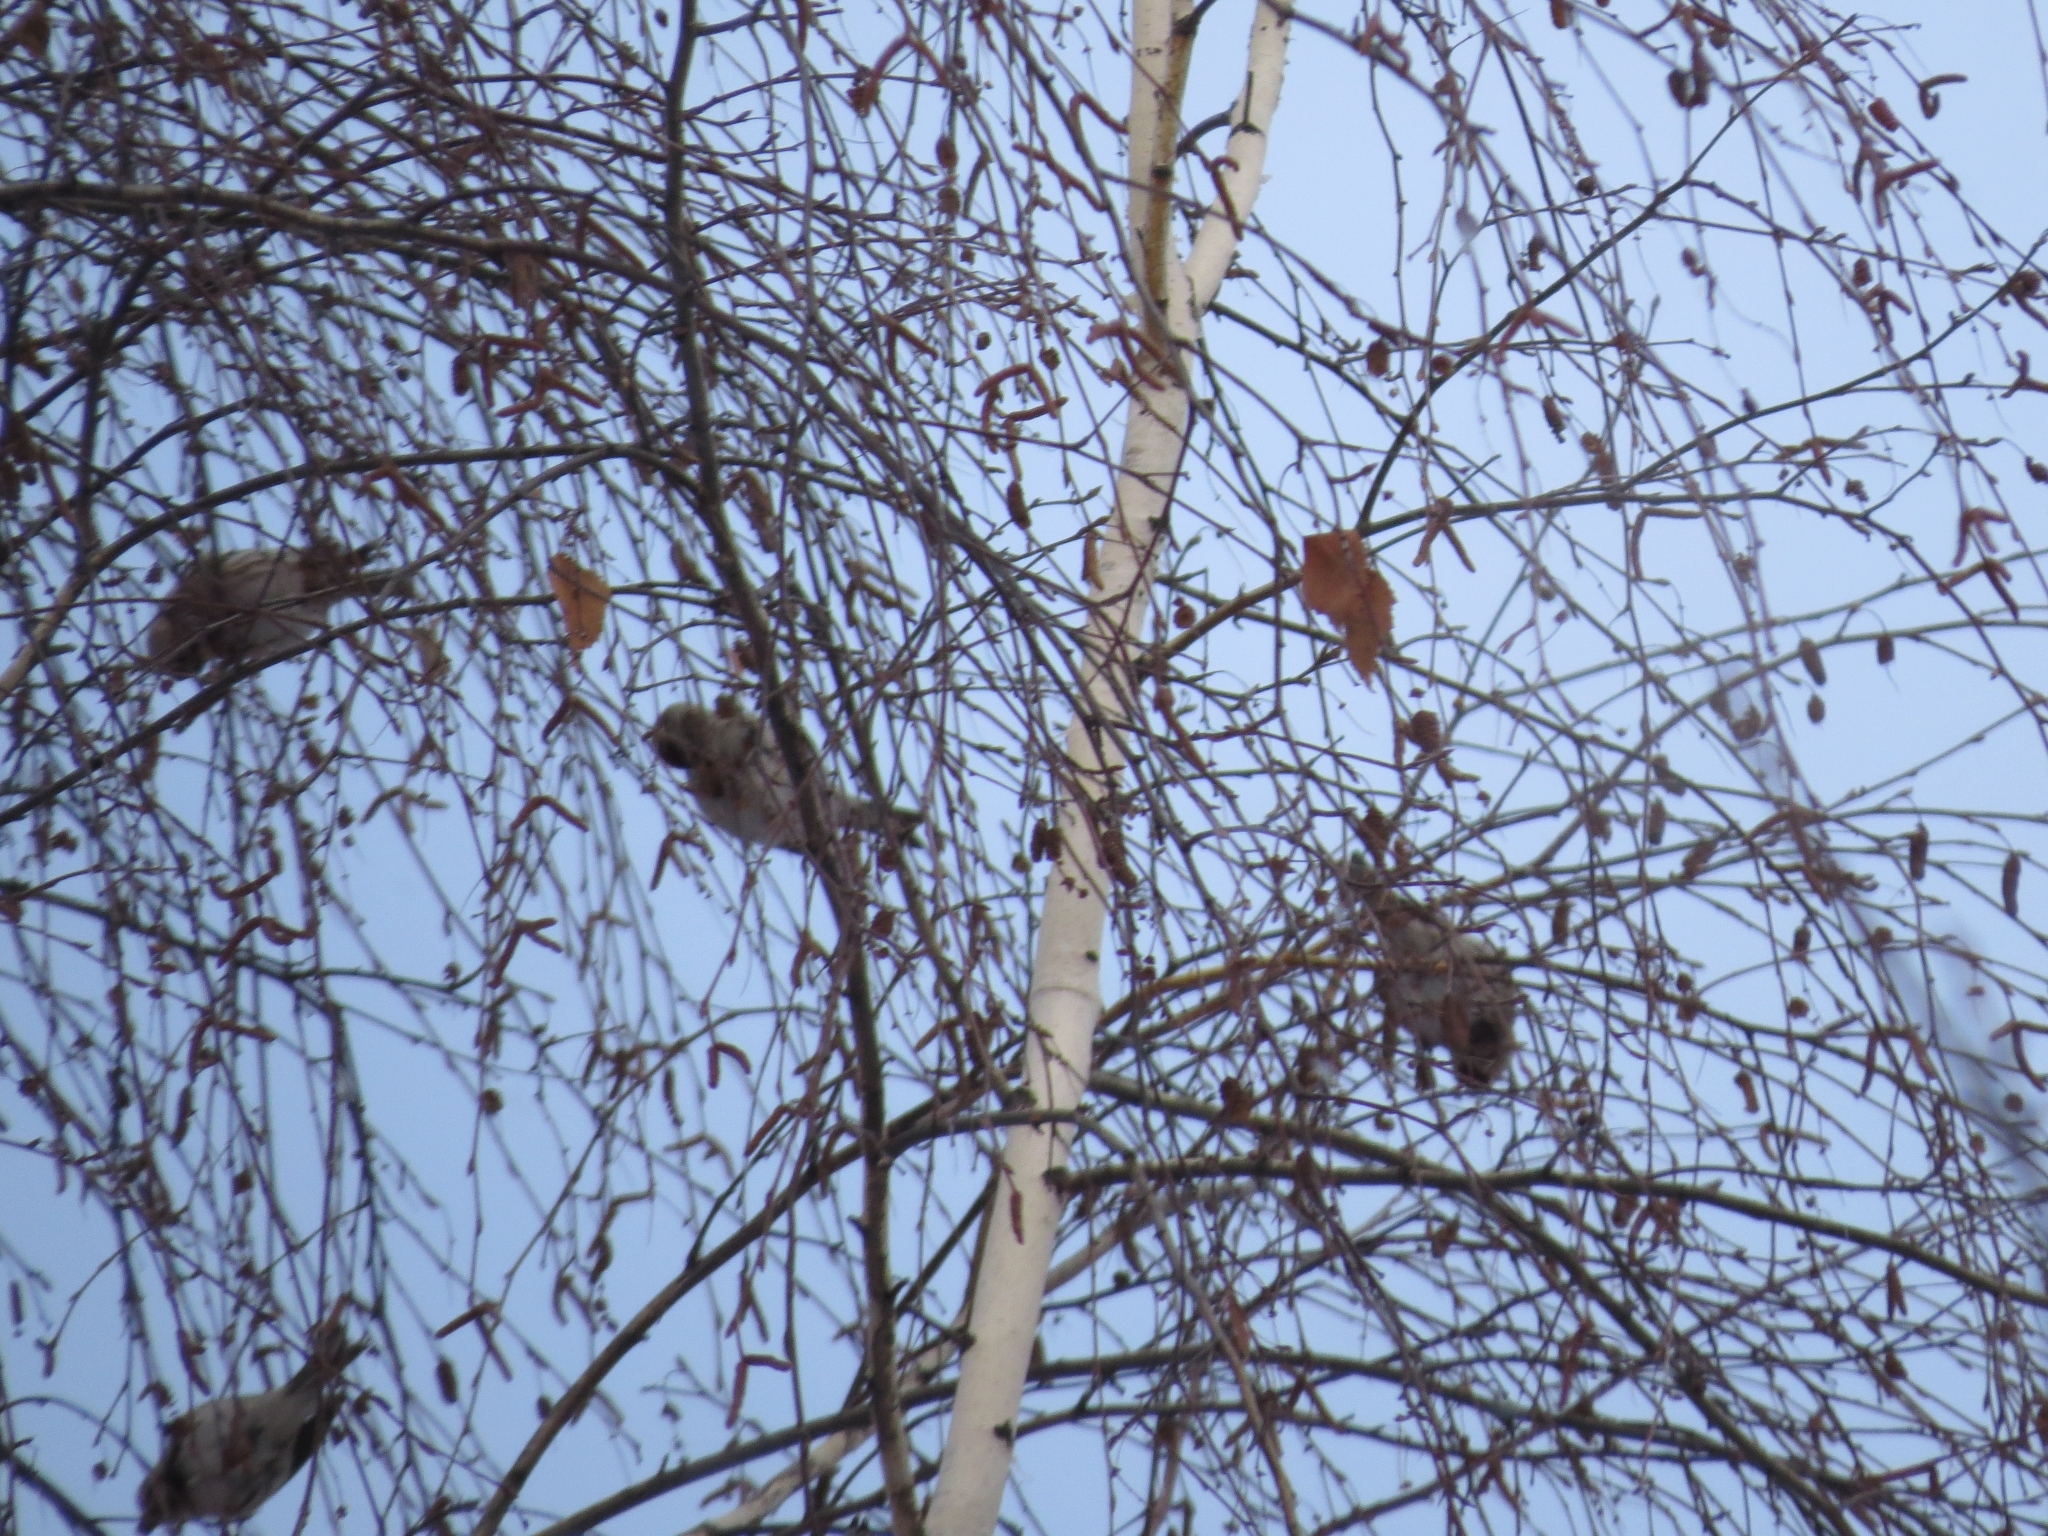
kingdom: Animalia
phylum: Chordata
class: Aves
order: Passeriformes
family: Fringillidae
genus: Acanthis
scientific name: Acanthis flammea
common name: Common redpoll
